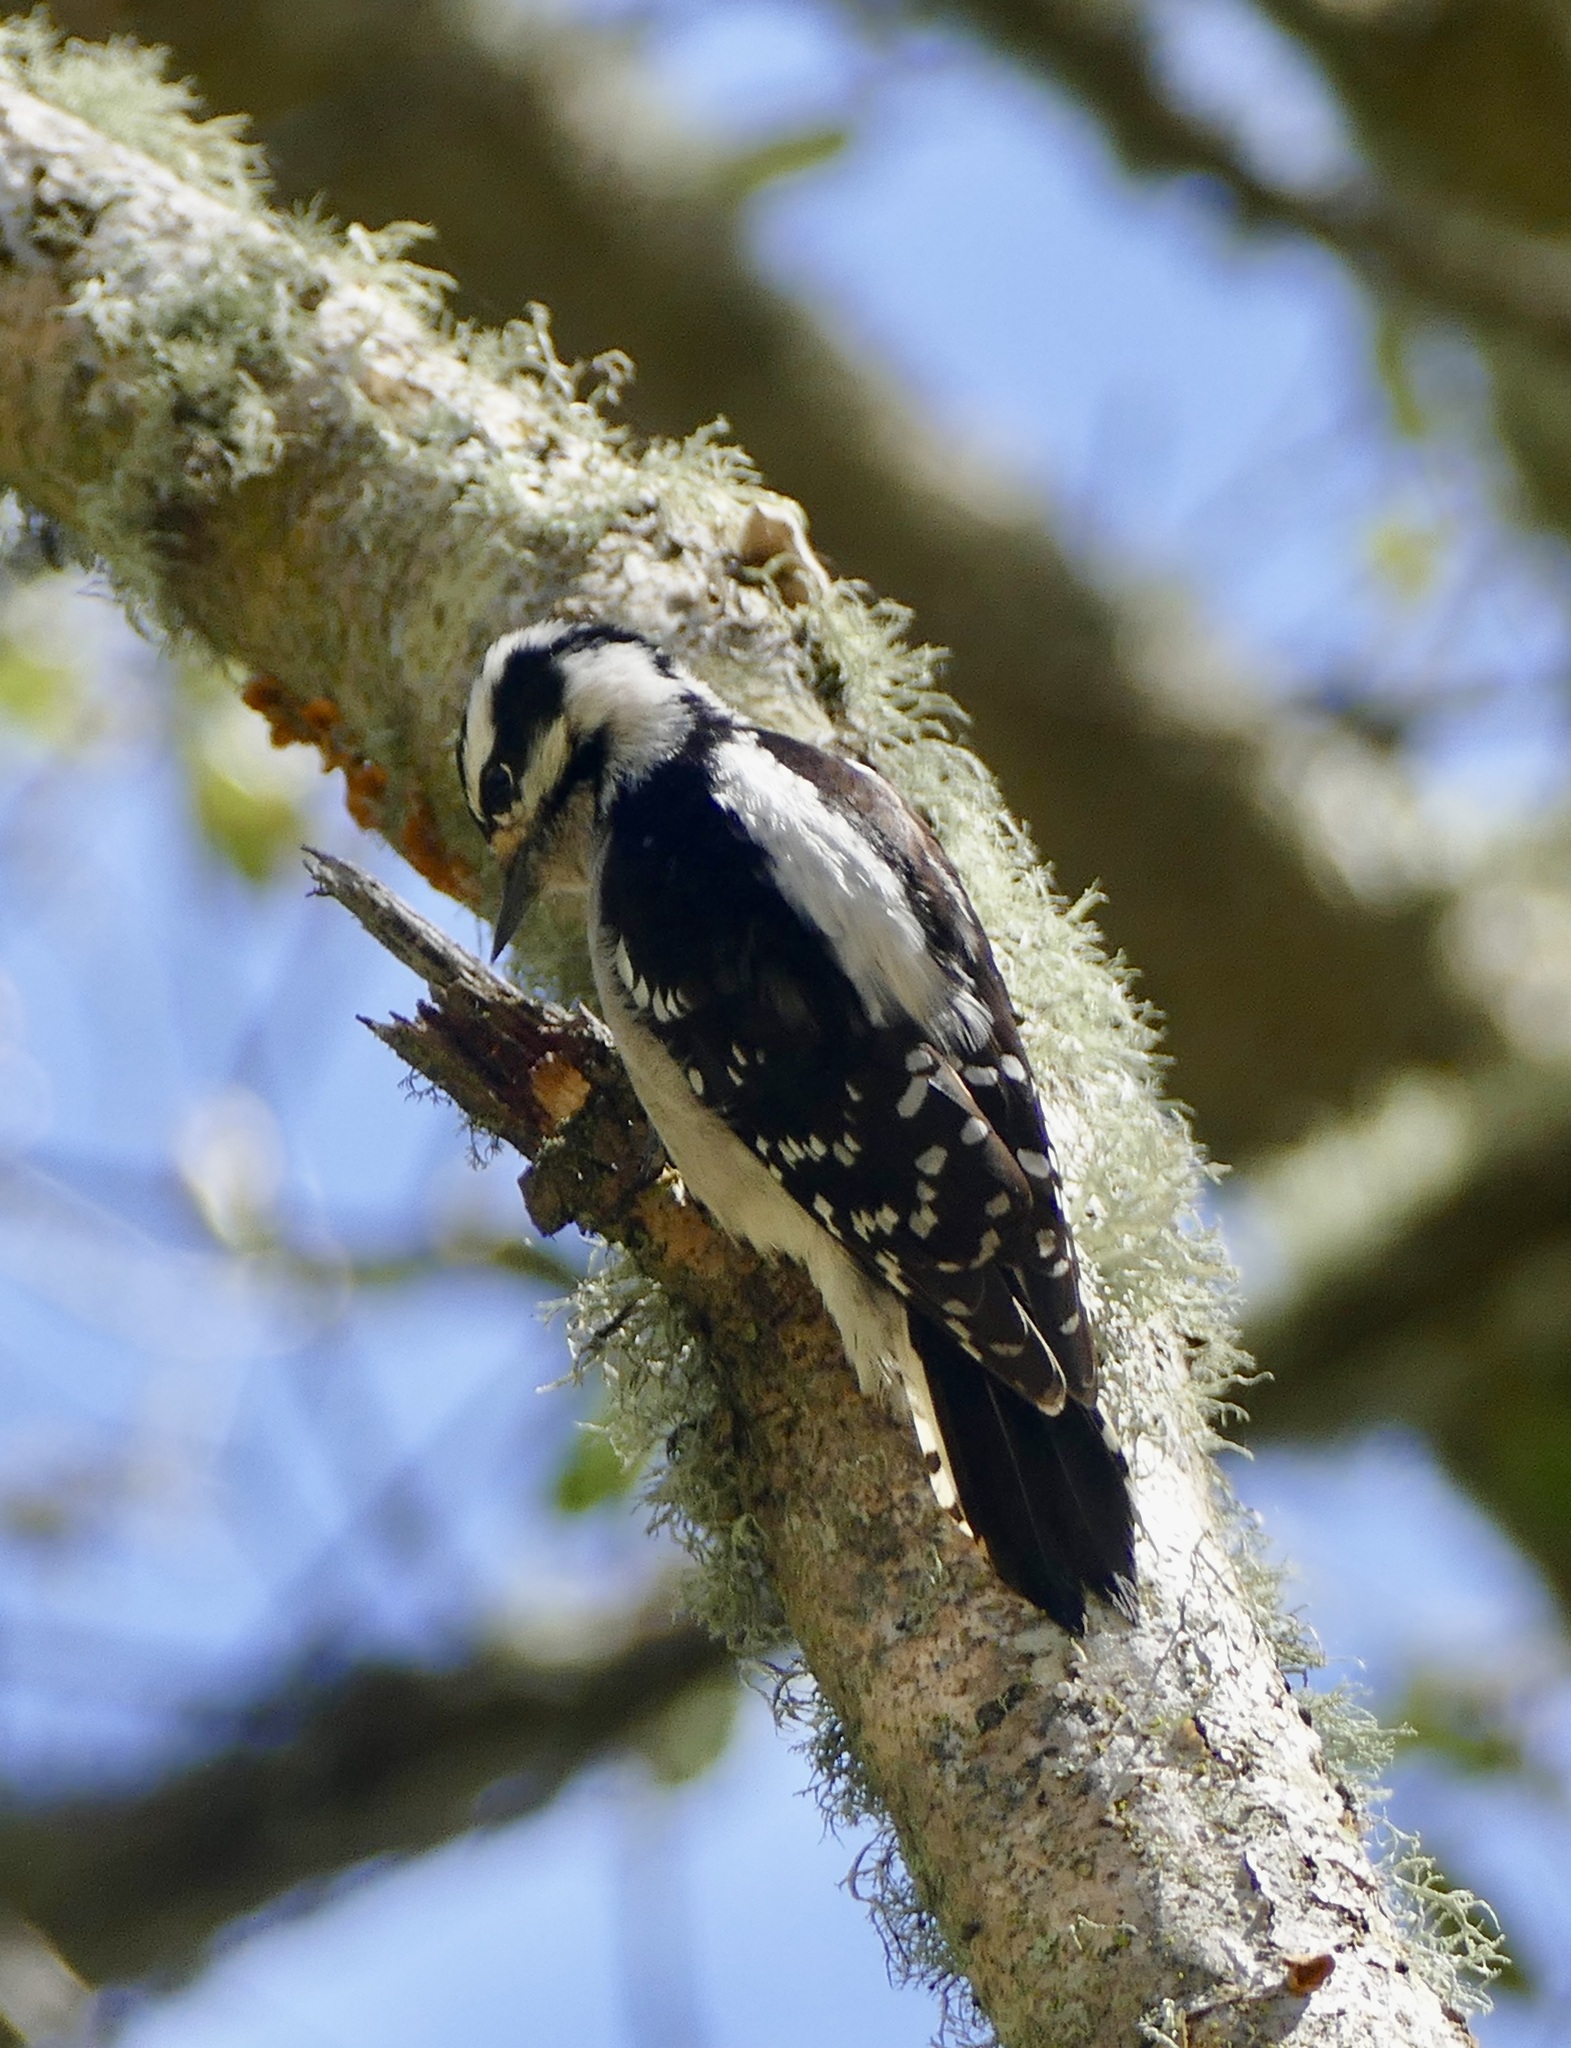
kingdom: Animalia
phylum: Chordata
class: Aves
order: Piciformes
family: Picidae
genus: Dryobates
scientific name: Dryobates pubescens
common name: Downy woodpecker
